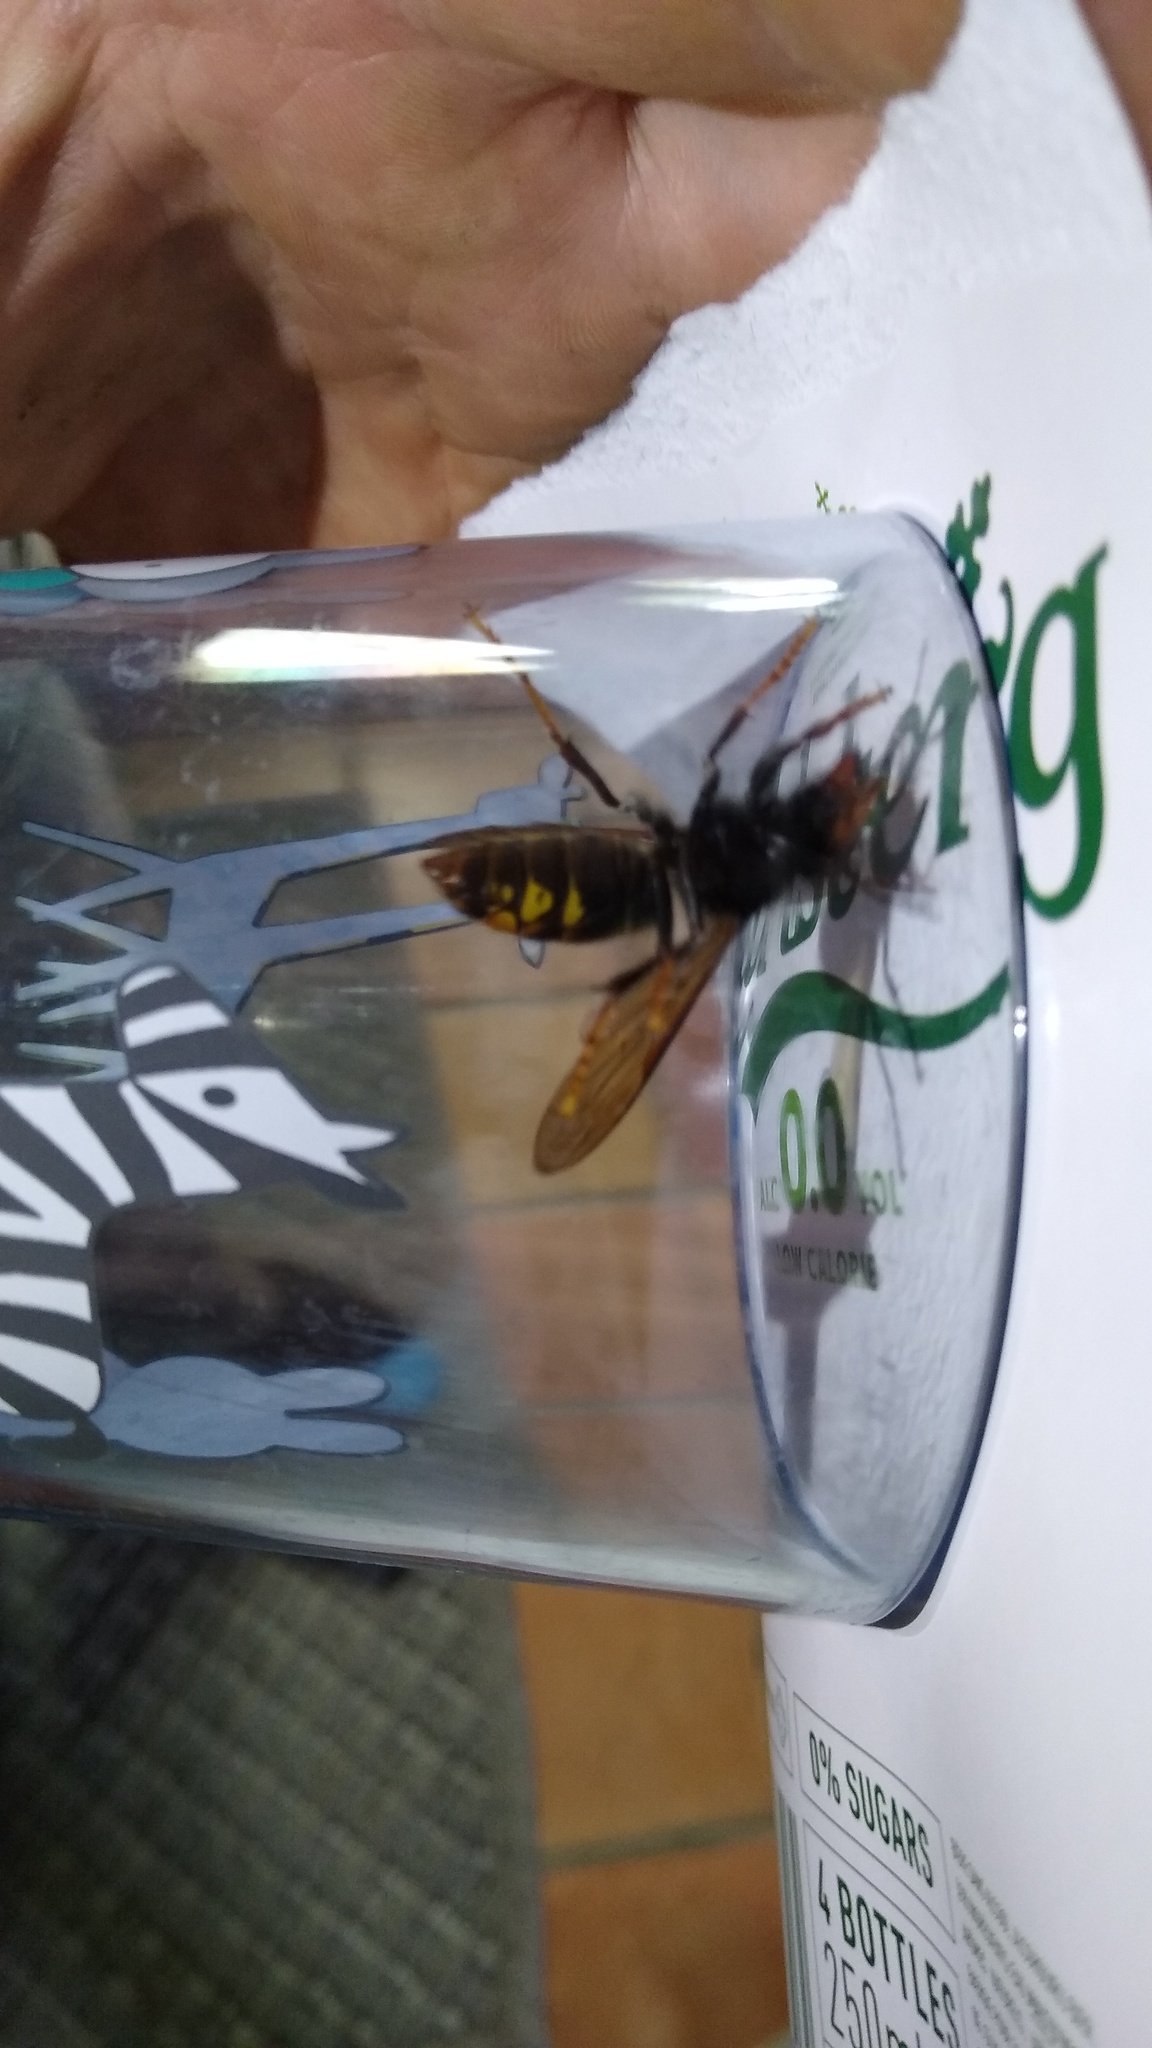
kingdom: Animalia
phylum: Arthropoda
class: Insecta
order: Hymenoptera
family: Vespidae
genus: Vespa
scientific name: Vespa velutina
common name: Asian hornet
